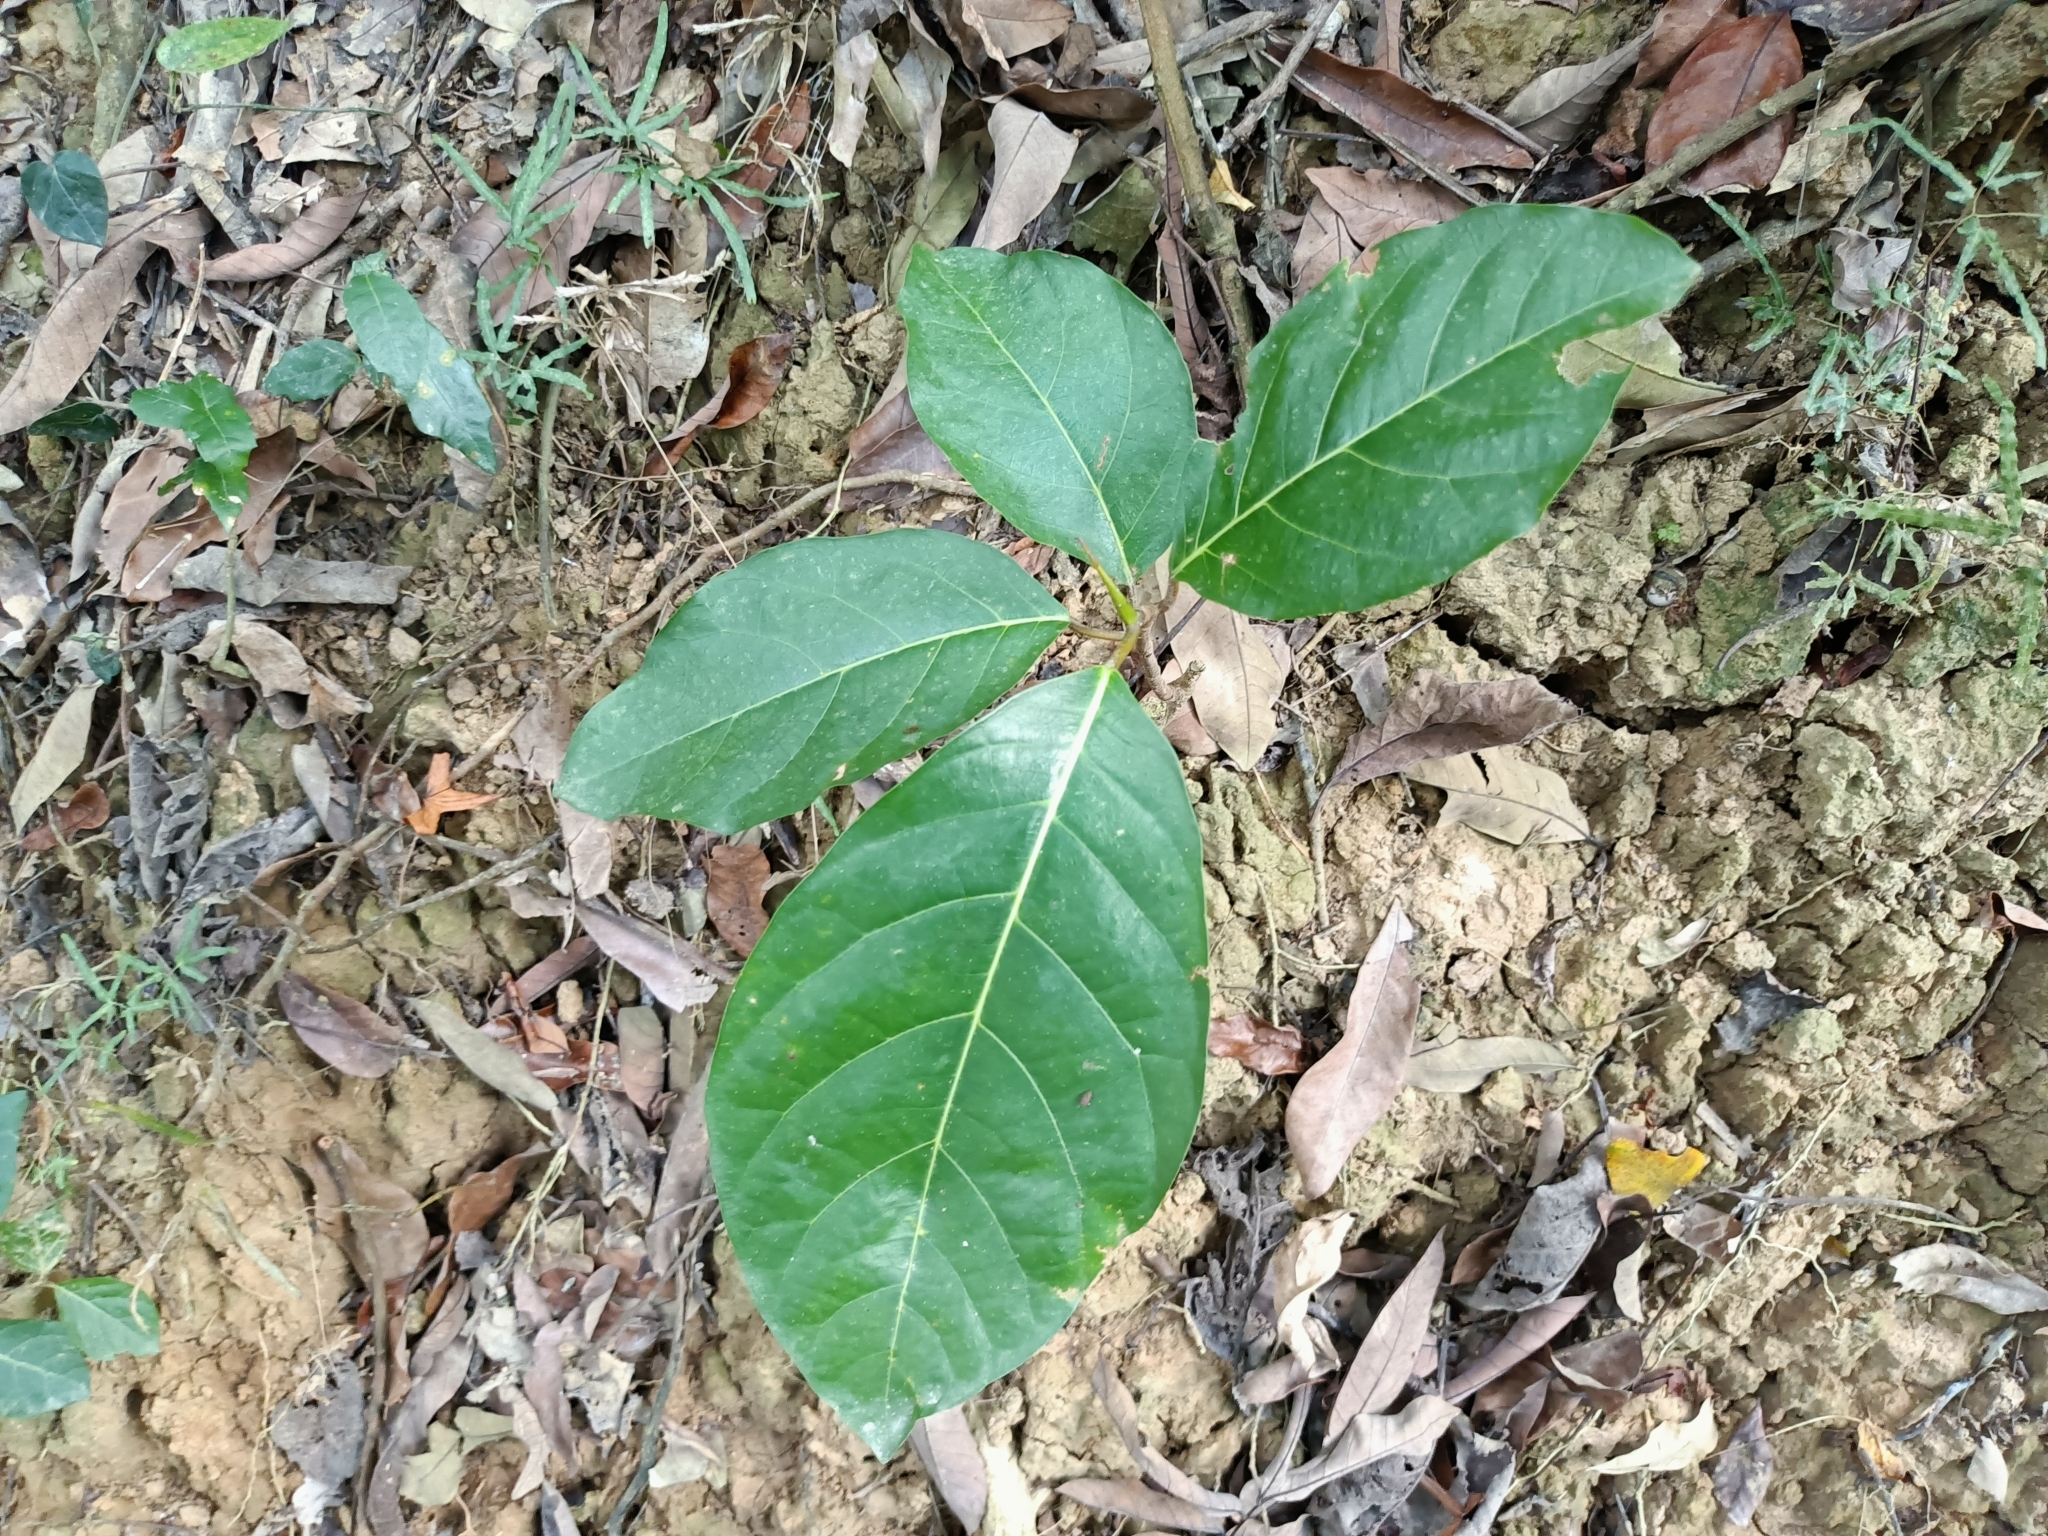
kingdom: Plantae
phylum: Tracheophyta
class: Magnoliopsida
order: Rosales
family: Moraceae
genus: Ficus
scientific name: Ficus septica
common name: Septic fig
